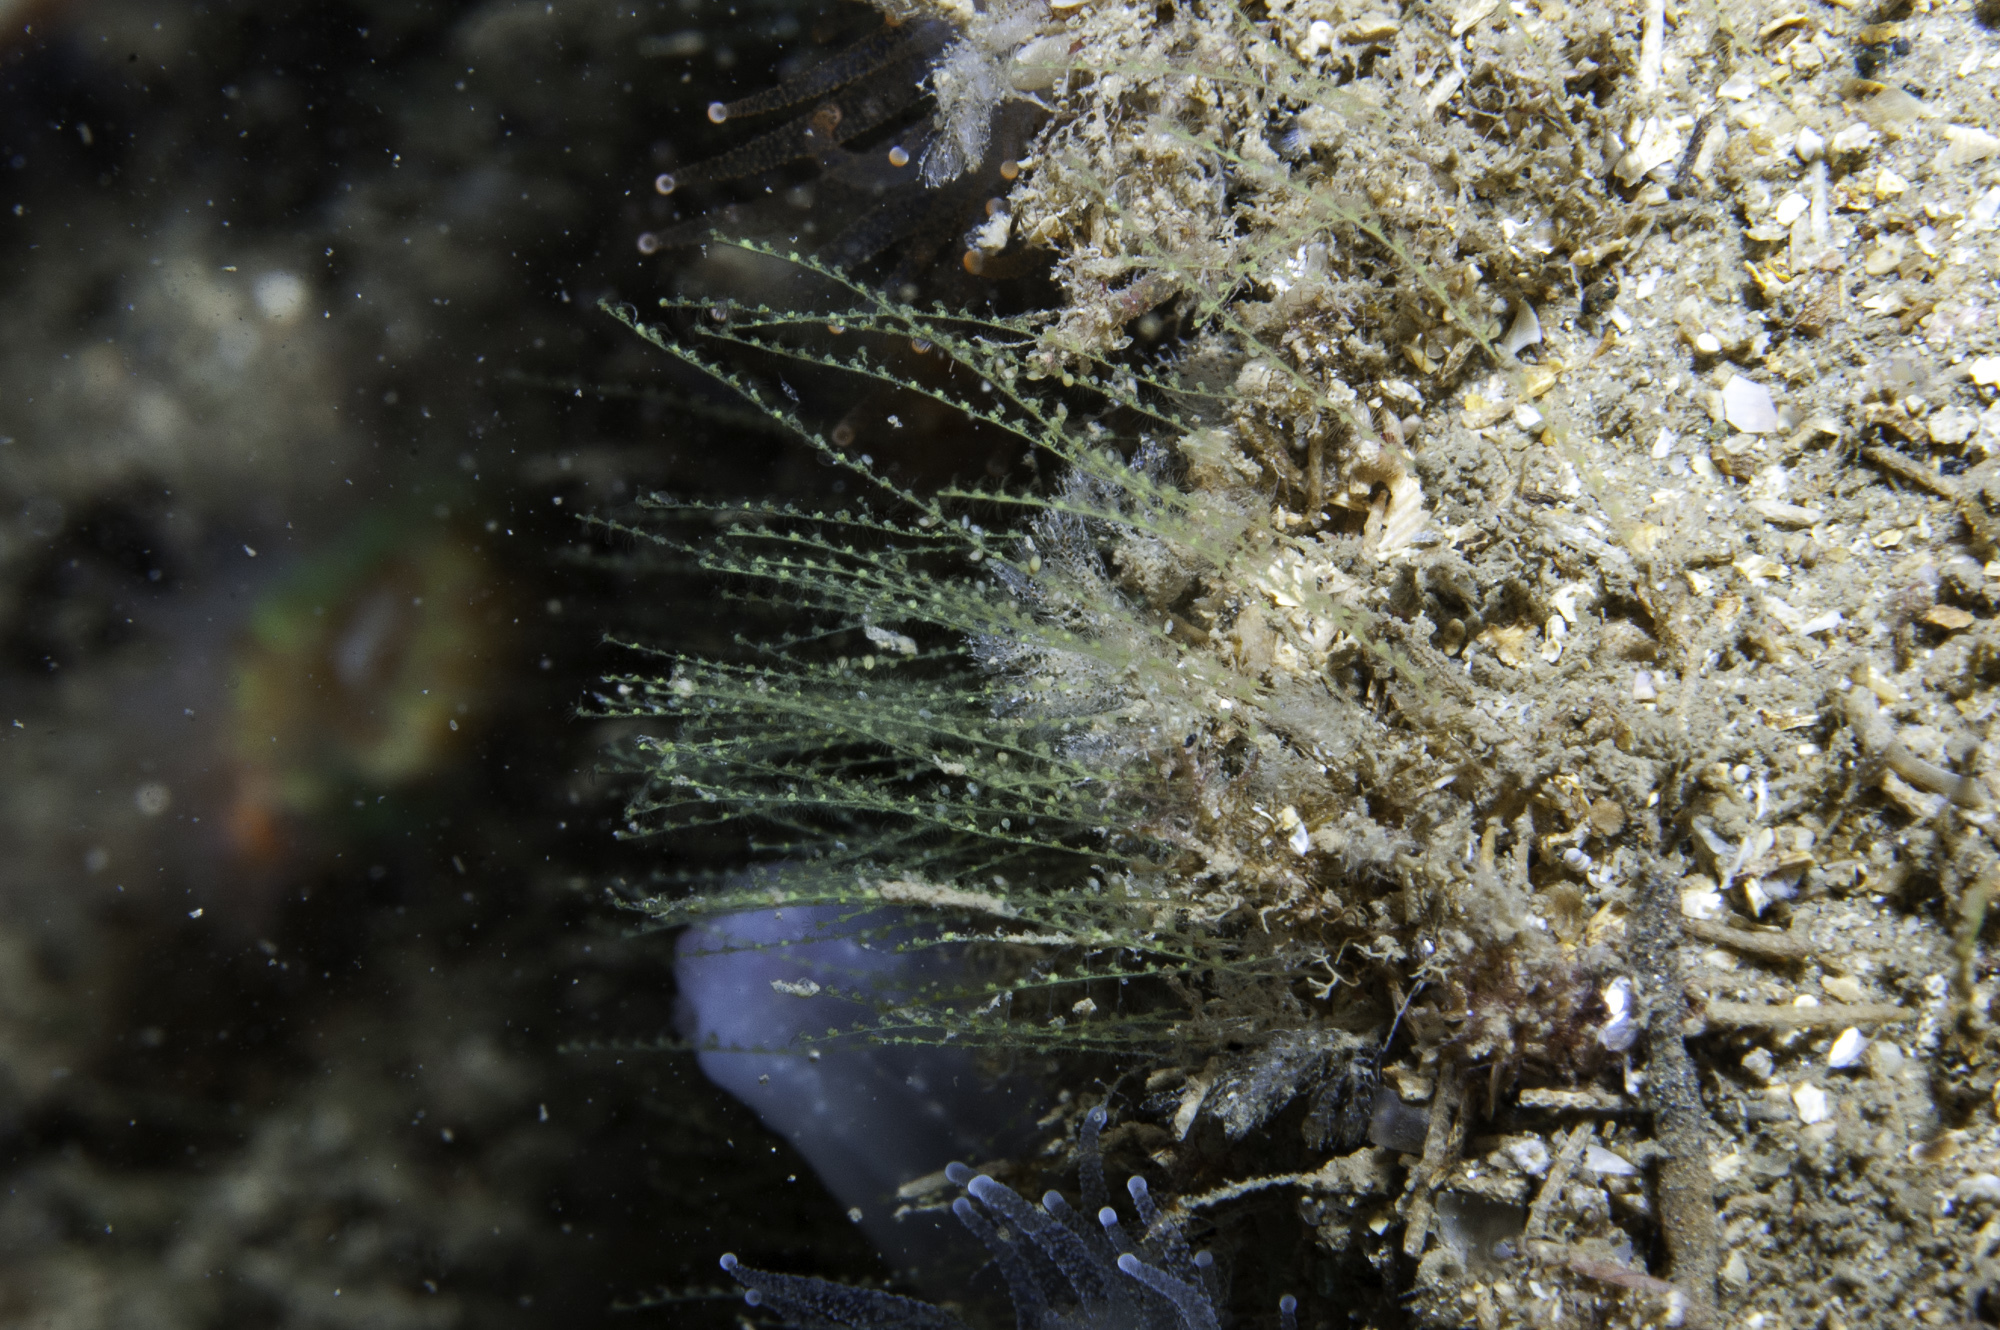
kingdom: Animalia
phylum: Cnidaria
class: Hydrozoa
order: Leptothecata
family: Halopterididae
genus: Antennella
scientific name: Antennella secundaria
